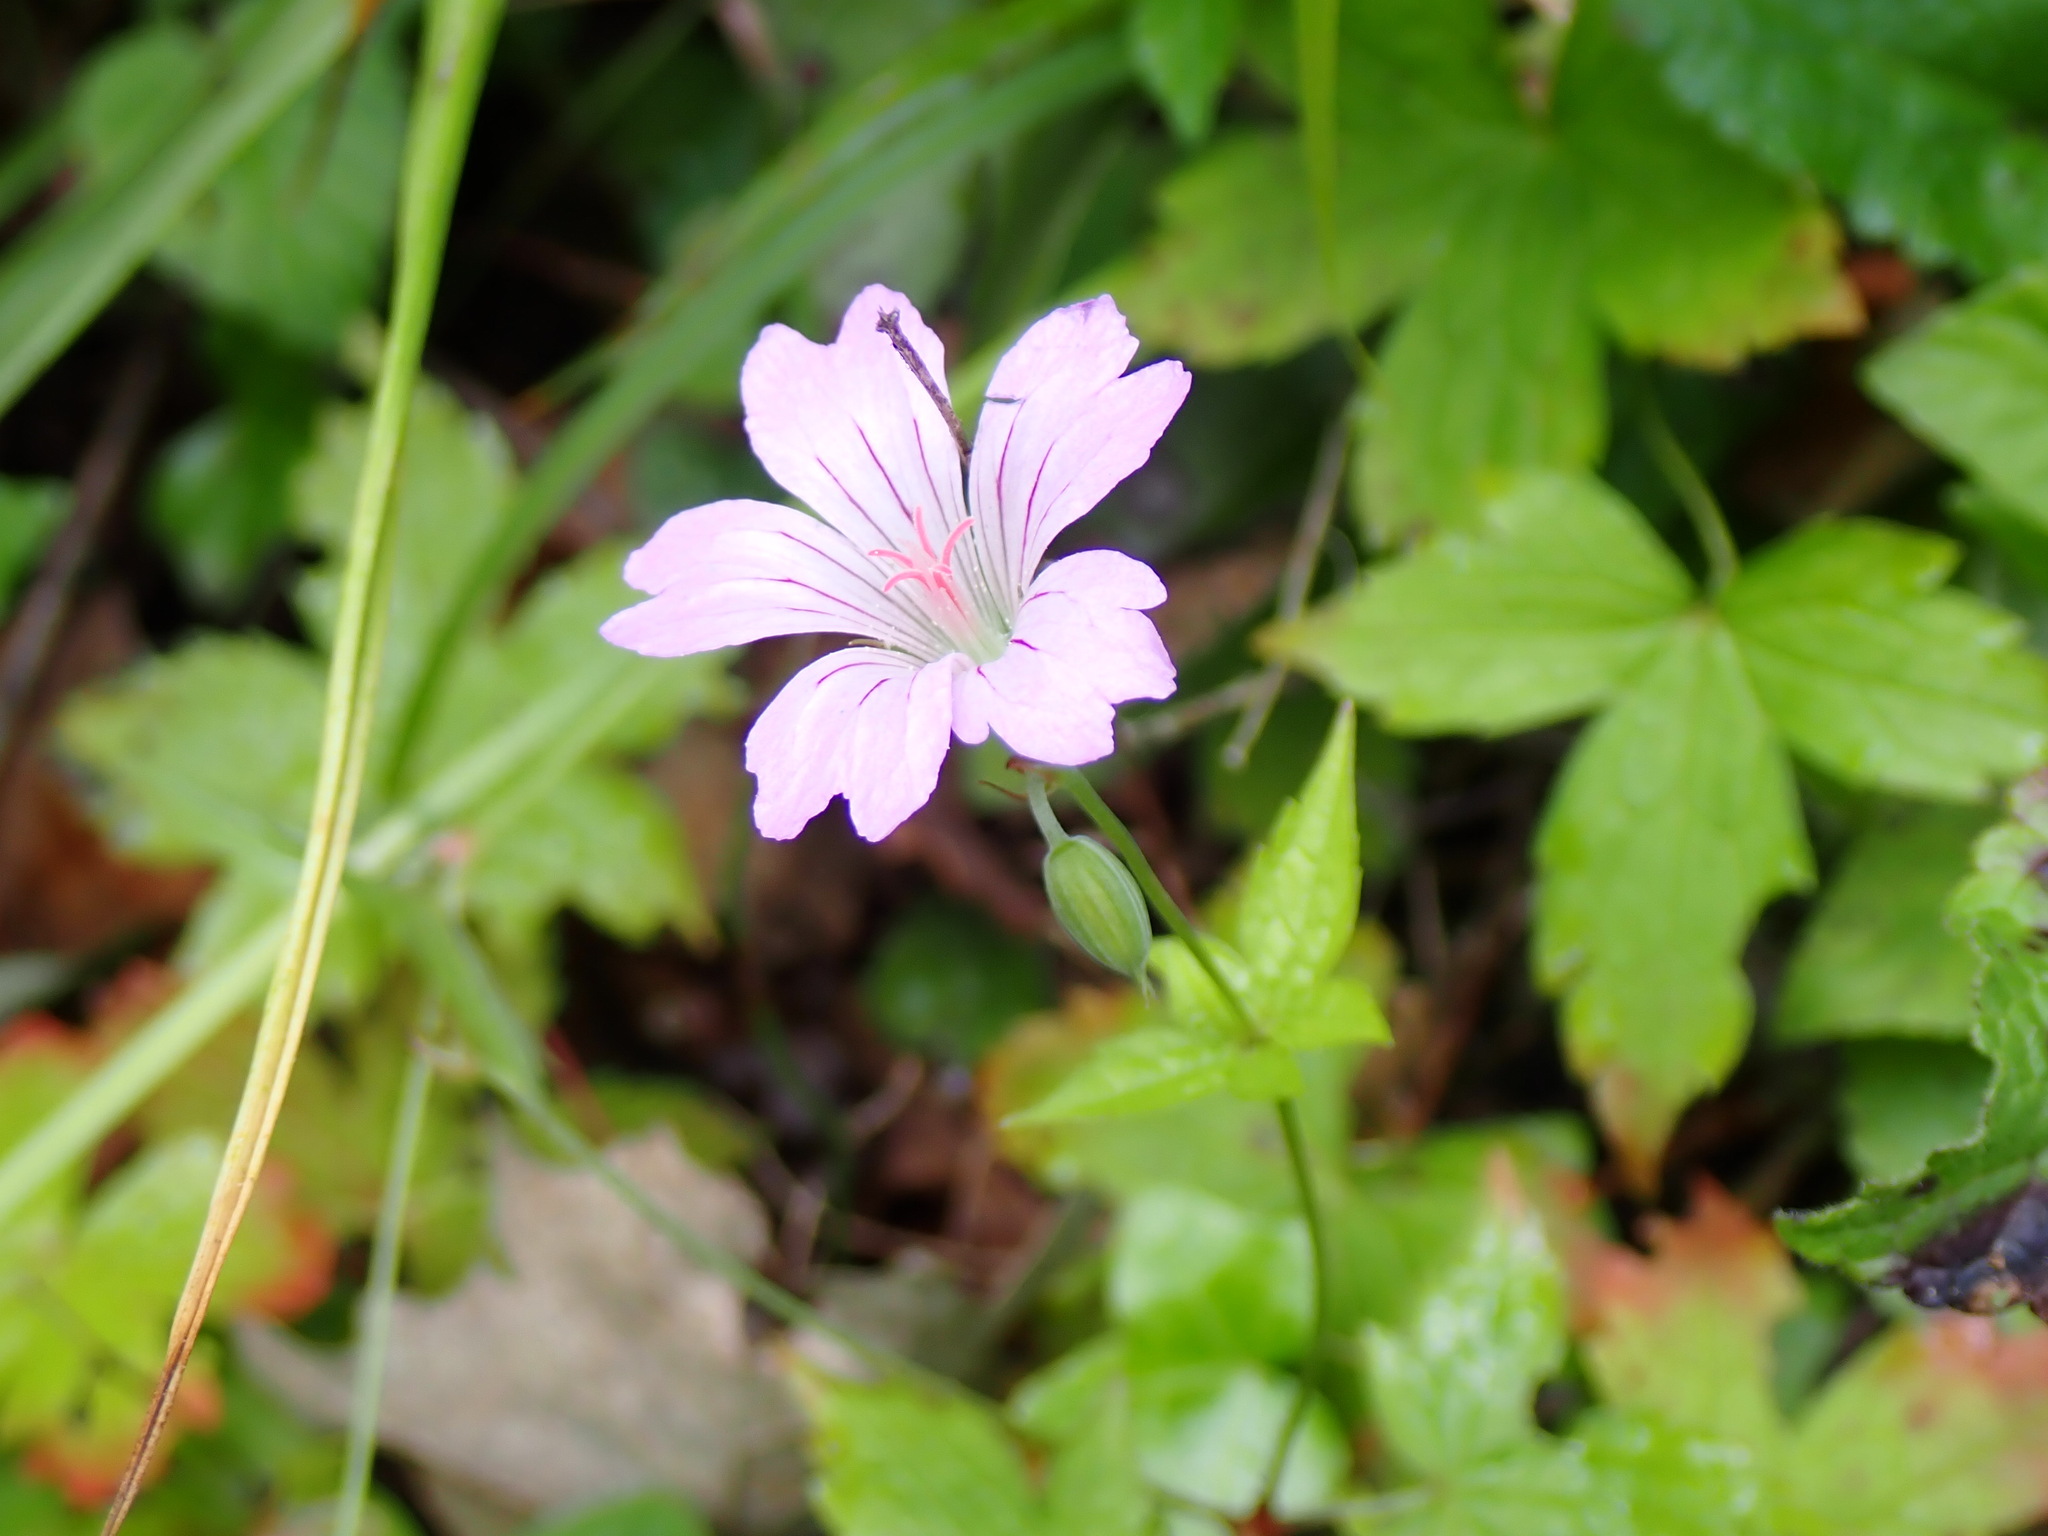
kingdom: Plantae
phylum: Tracheophyta
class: Magnoliopsida
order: Geraniales
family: Geraniaceae
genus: Geranium
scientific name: Geranium nodosum
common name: Knotted crane's-bill
